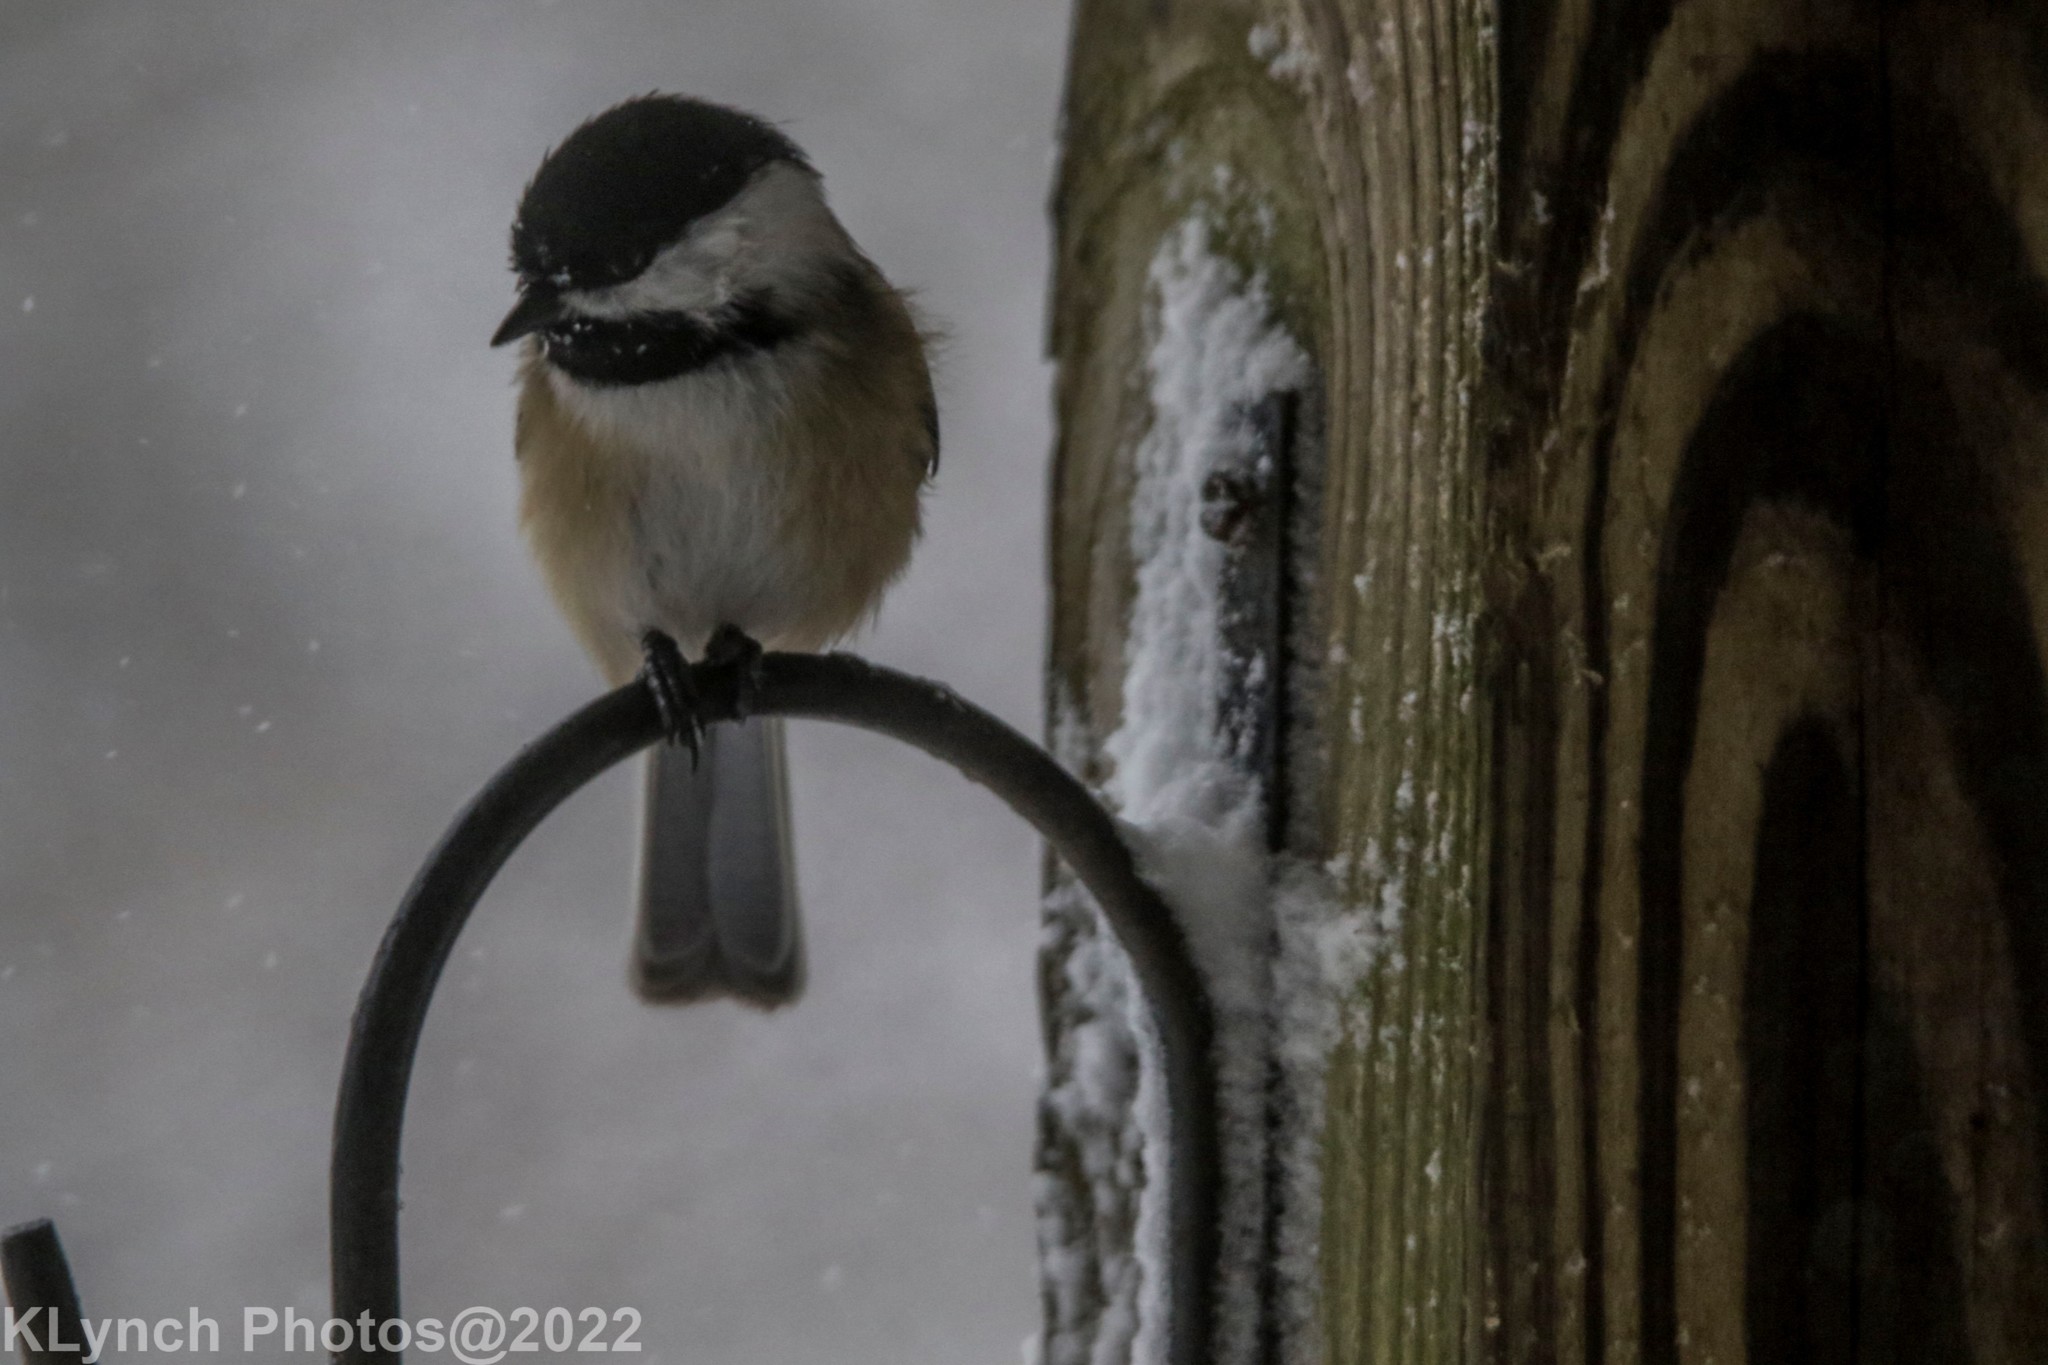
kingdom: Animalia
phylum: Chordata
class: Aves
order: Passeriformes
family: Paridae
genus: Poecile
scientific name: Poecile atricapillus
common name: Black-capped chickadee
